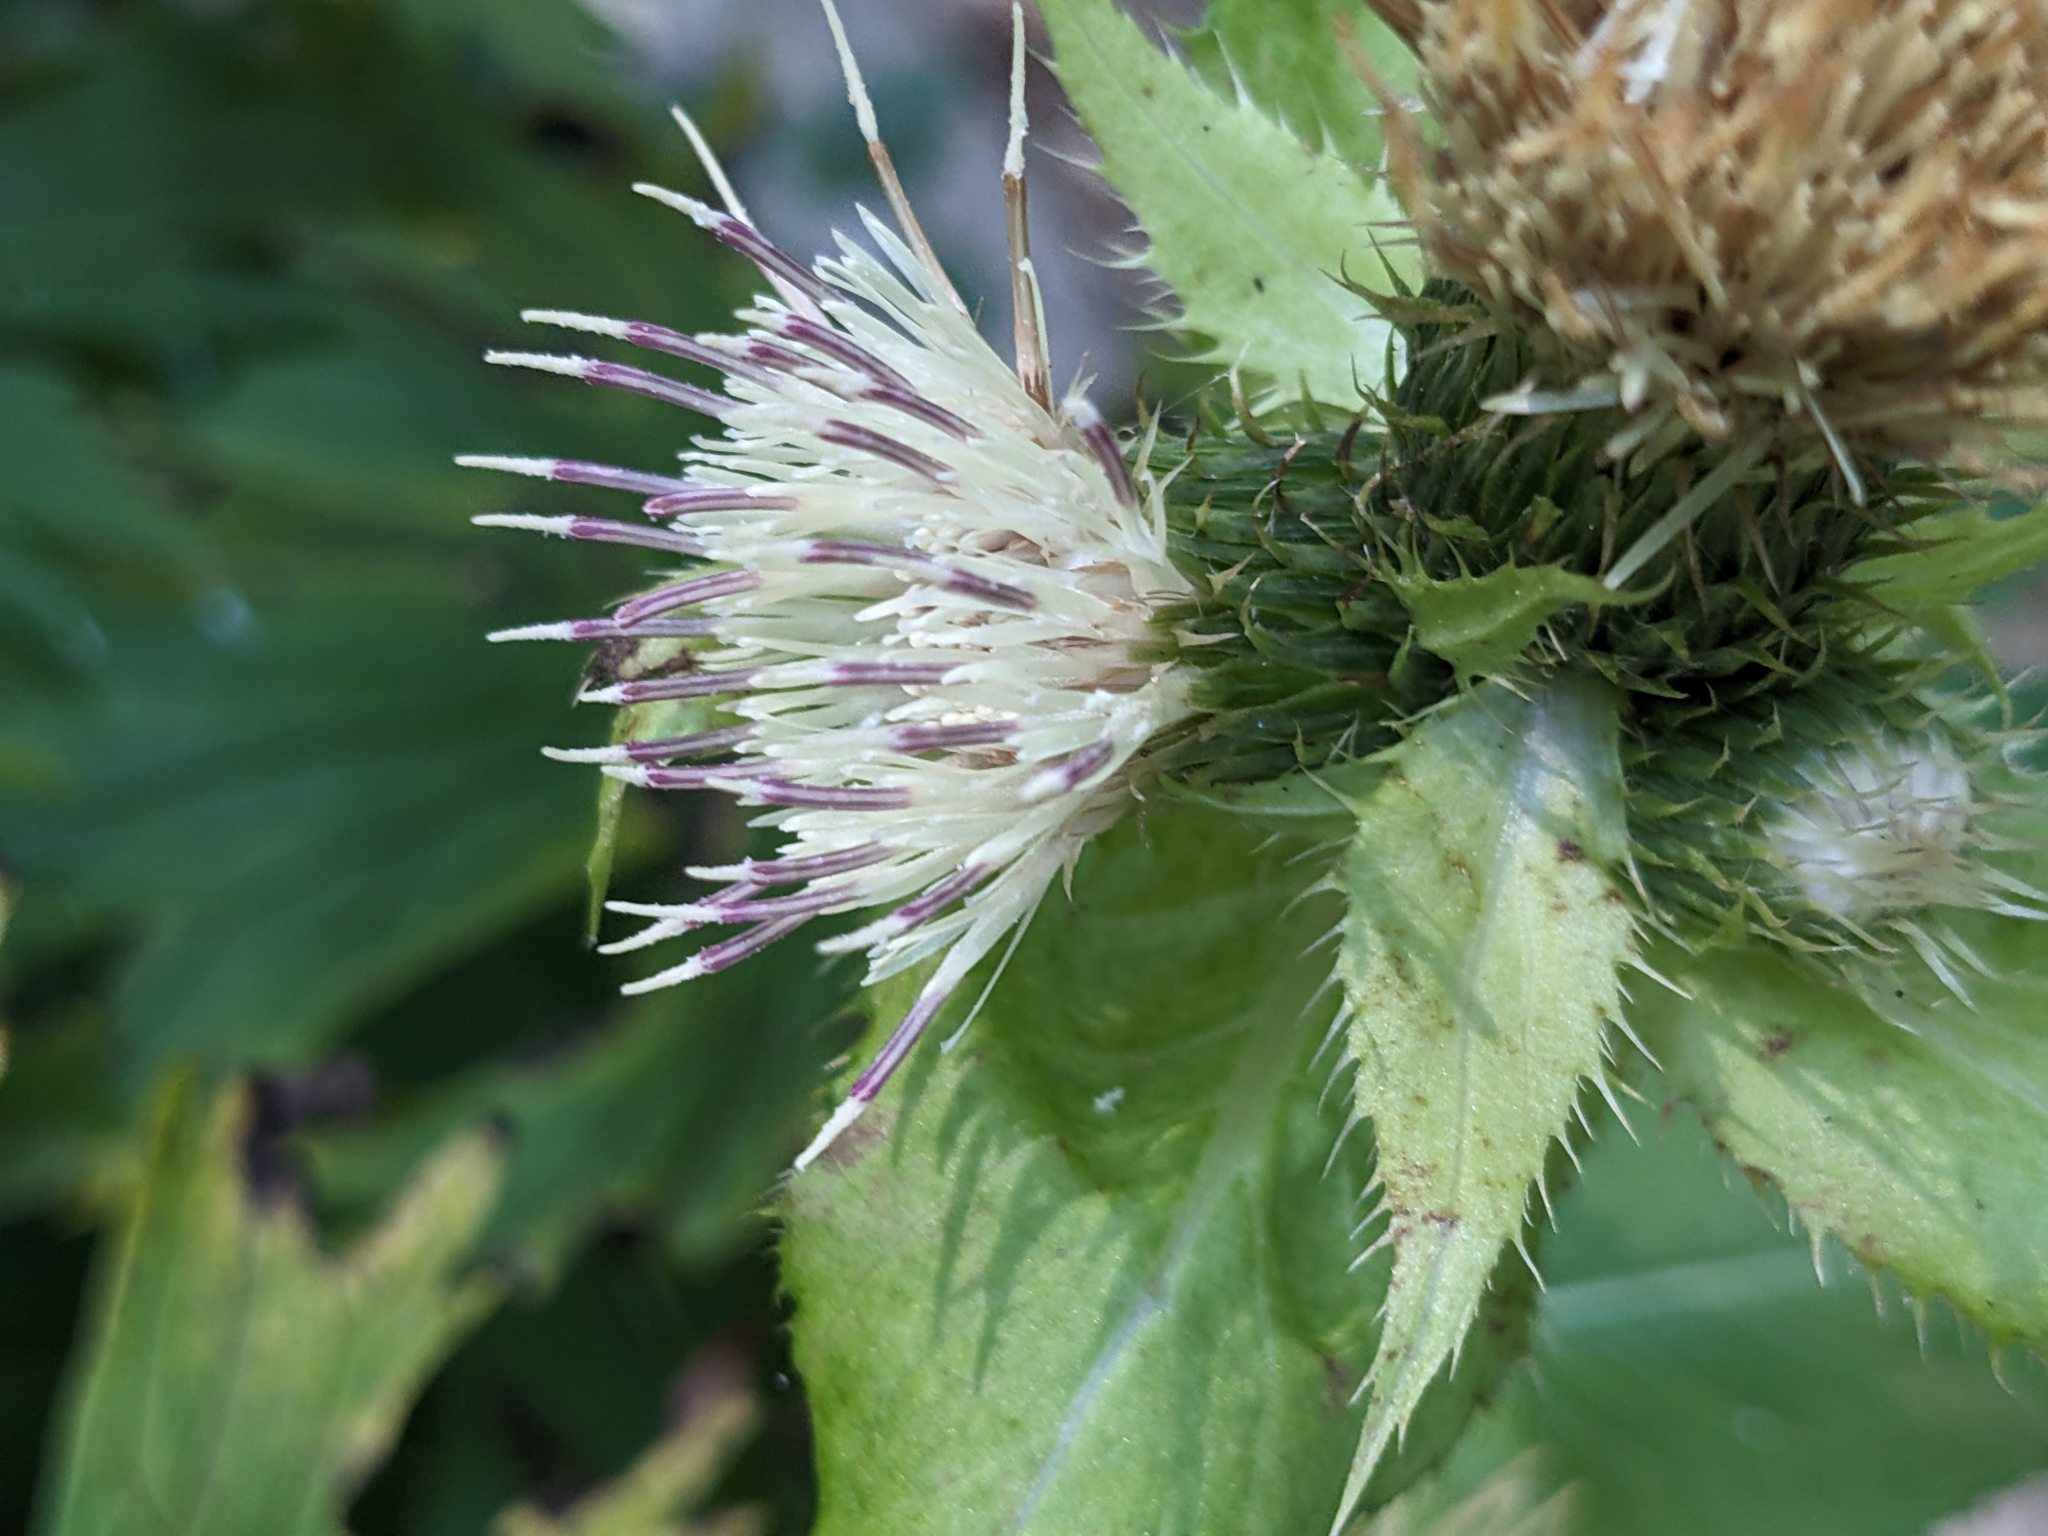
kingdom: Plantae
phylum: Tracheophyta
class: Magnoliopsida
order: Asterales
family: Asteraceae
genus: Cirsium
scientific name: Cirsium oleraceum
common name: Cabbage thistle
